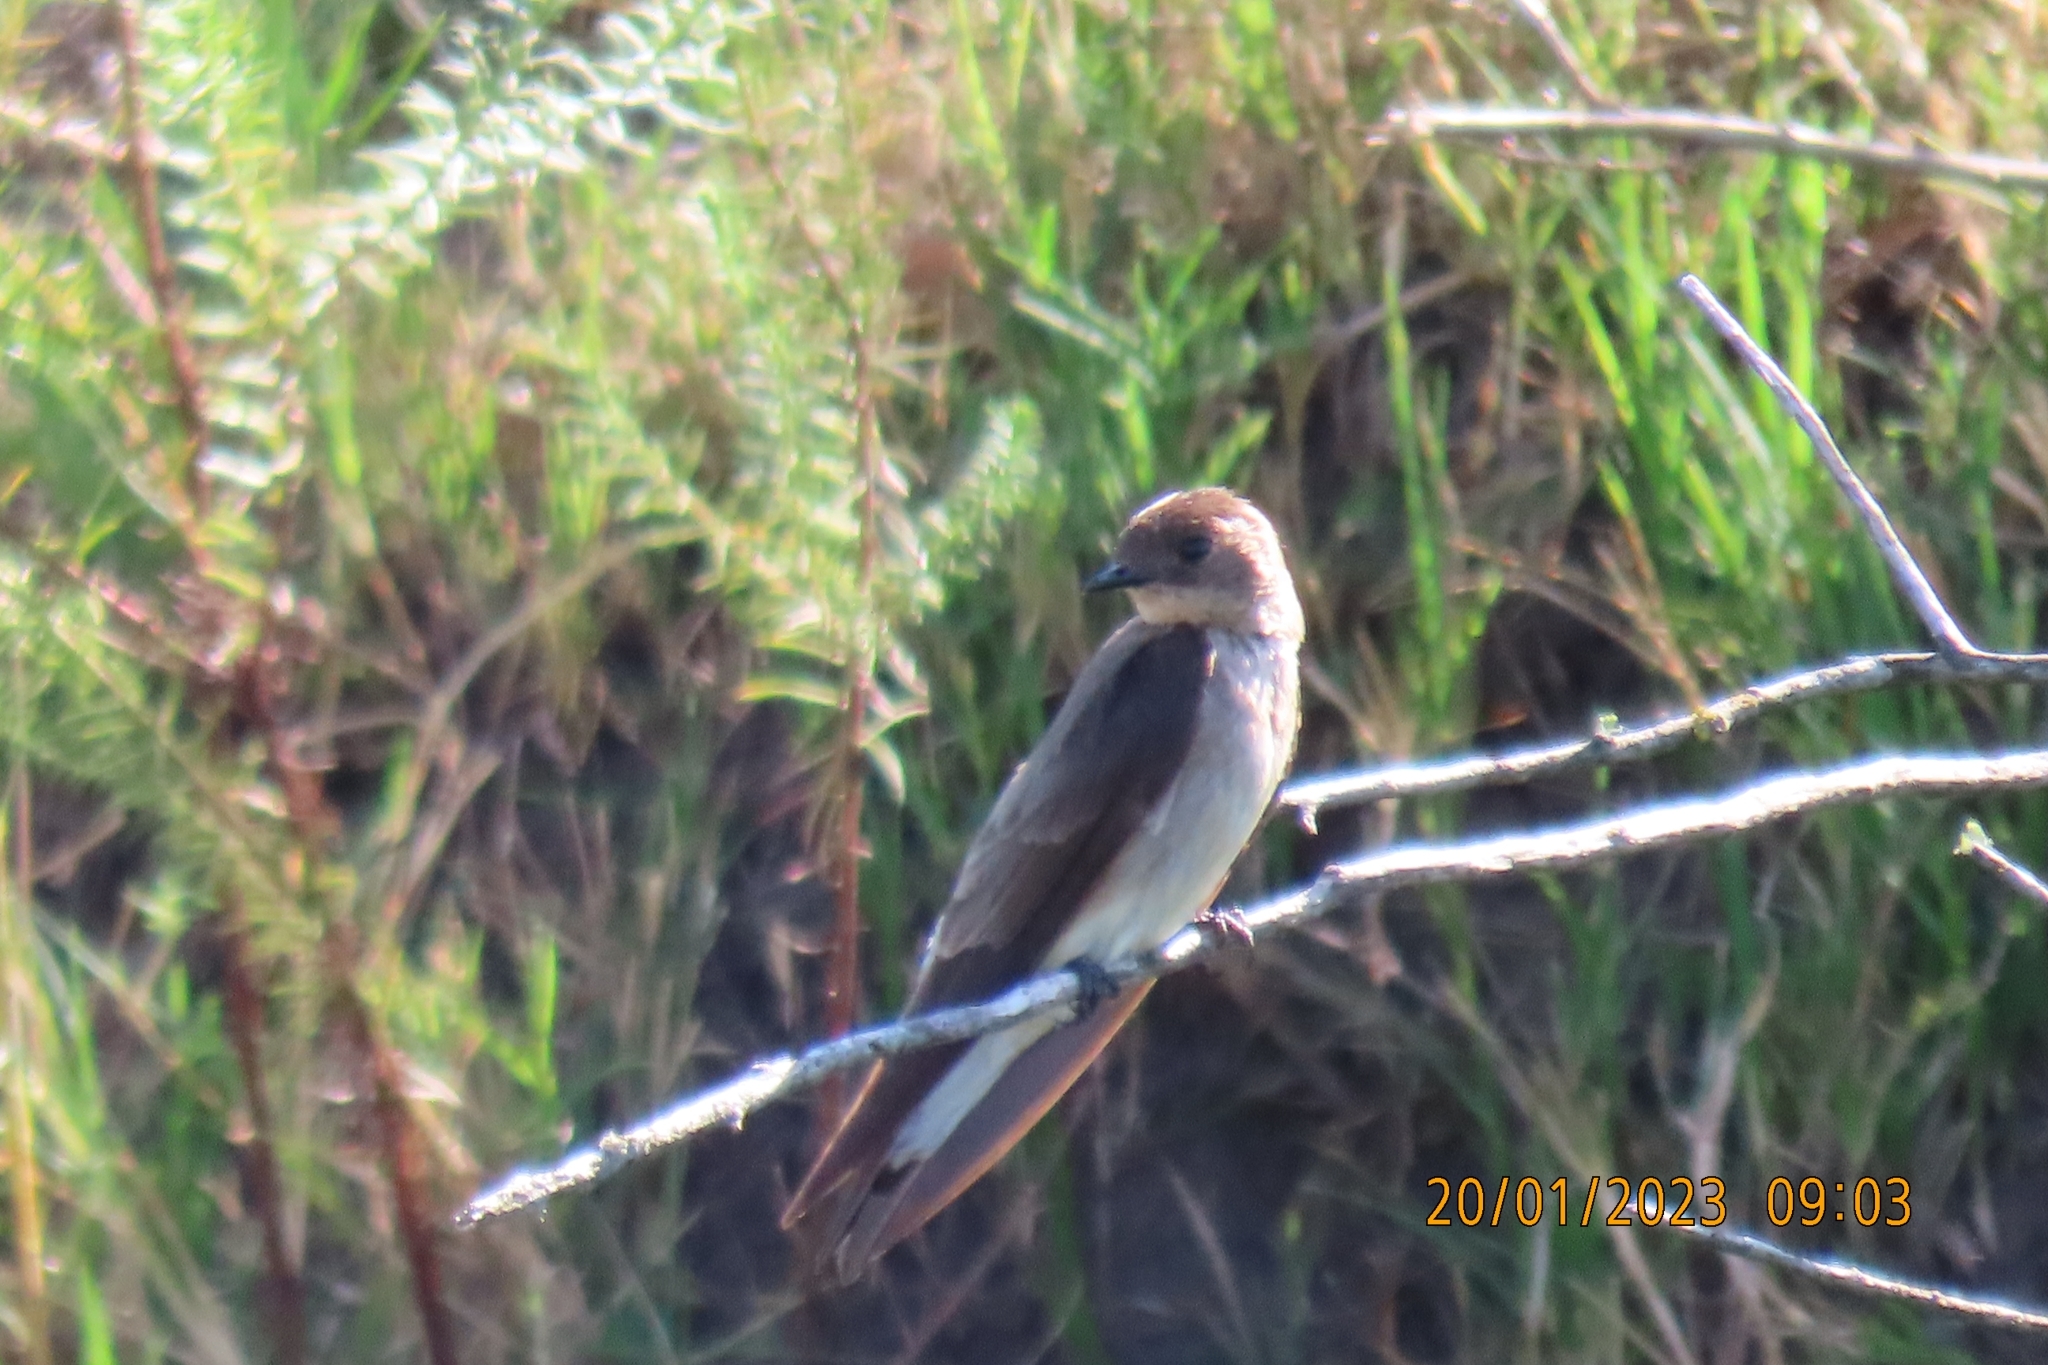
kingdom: Animalia
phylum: Chordata
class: Aves
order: Passeriformes
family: Hirundinidae
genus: Stelgidopteryx
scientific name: Stelgidopteryx ruficollis
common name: Southern rough-winged swallow
